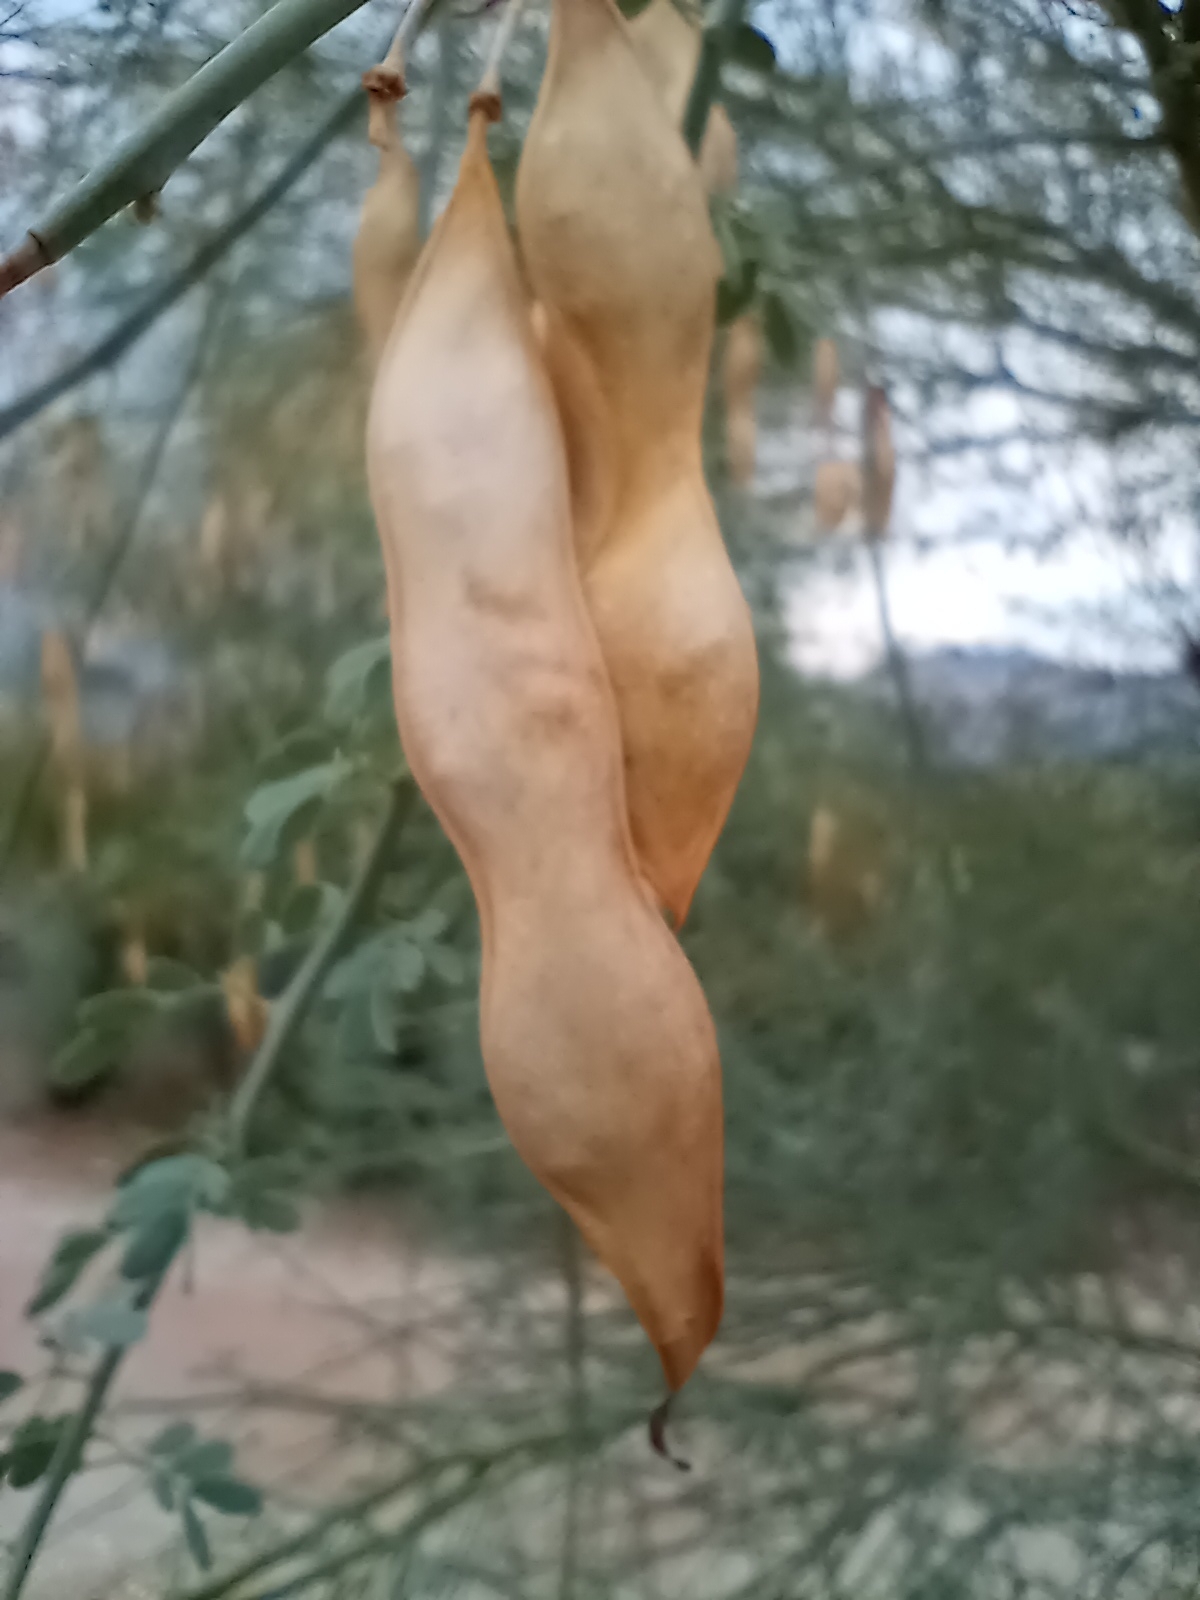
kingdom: Plantae
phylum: Tracheophyta
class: Magnoliopsida
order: Fabales
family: Fabaceae
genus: Parkinsonia
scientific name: Parkinsonia florida
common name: Blue paloverde
